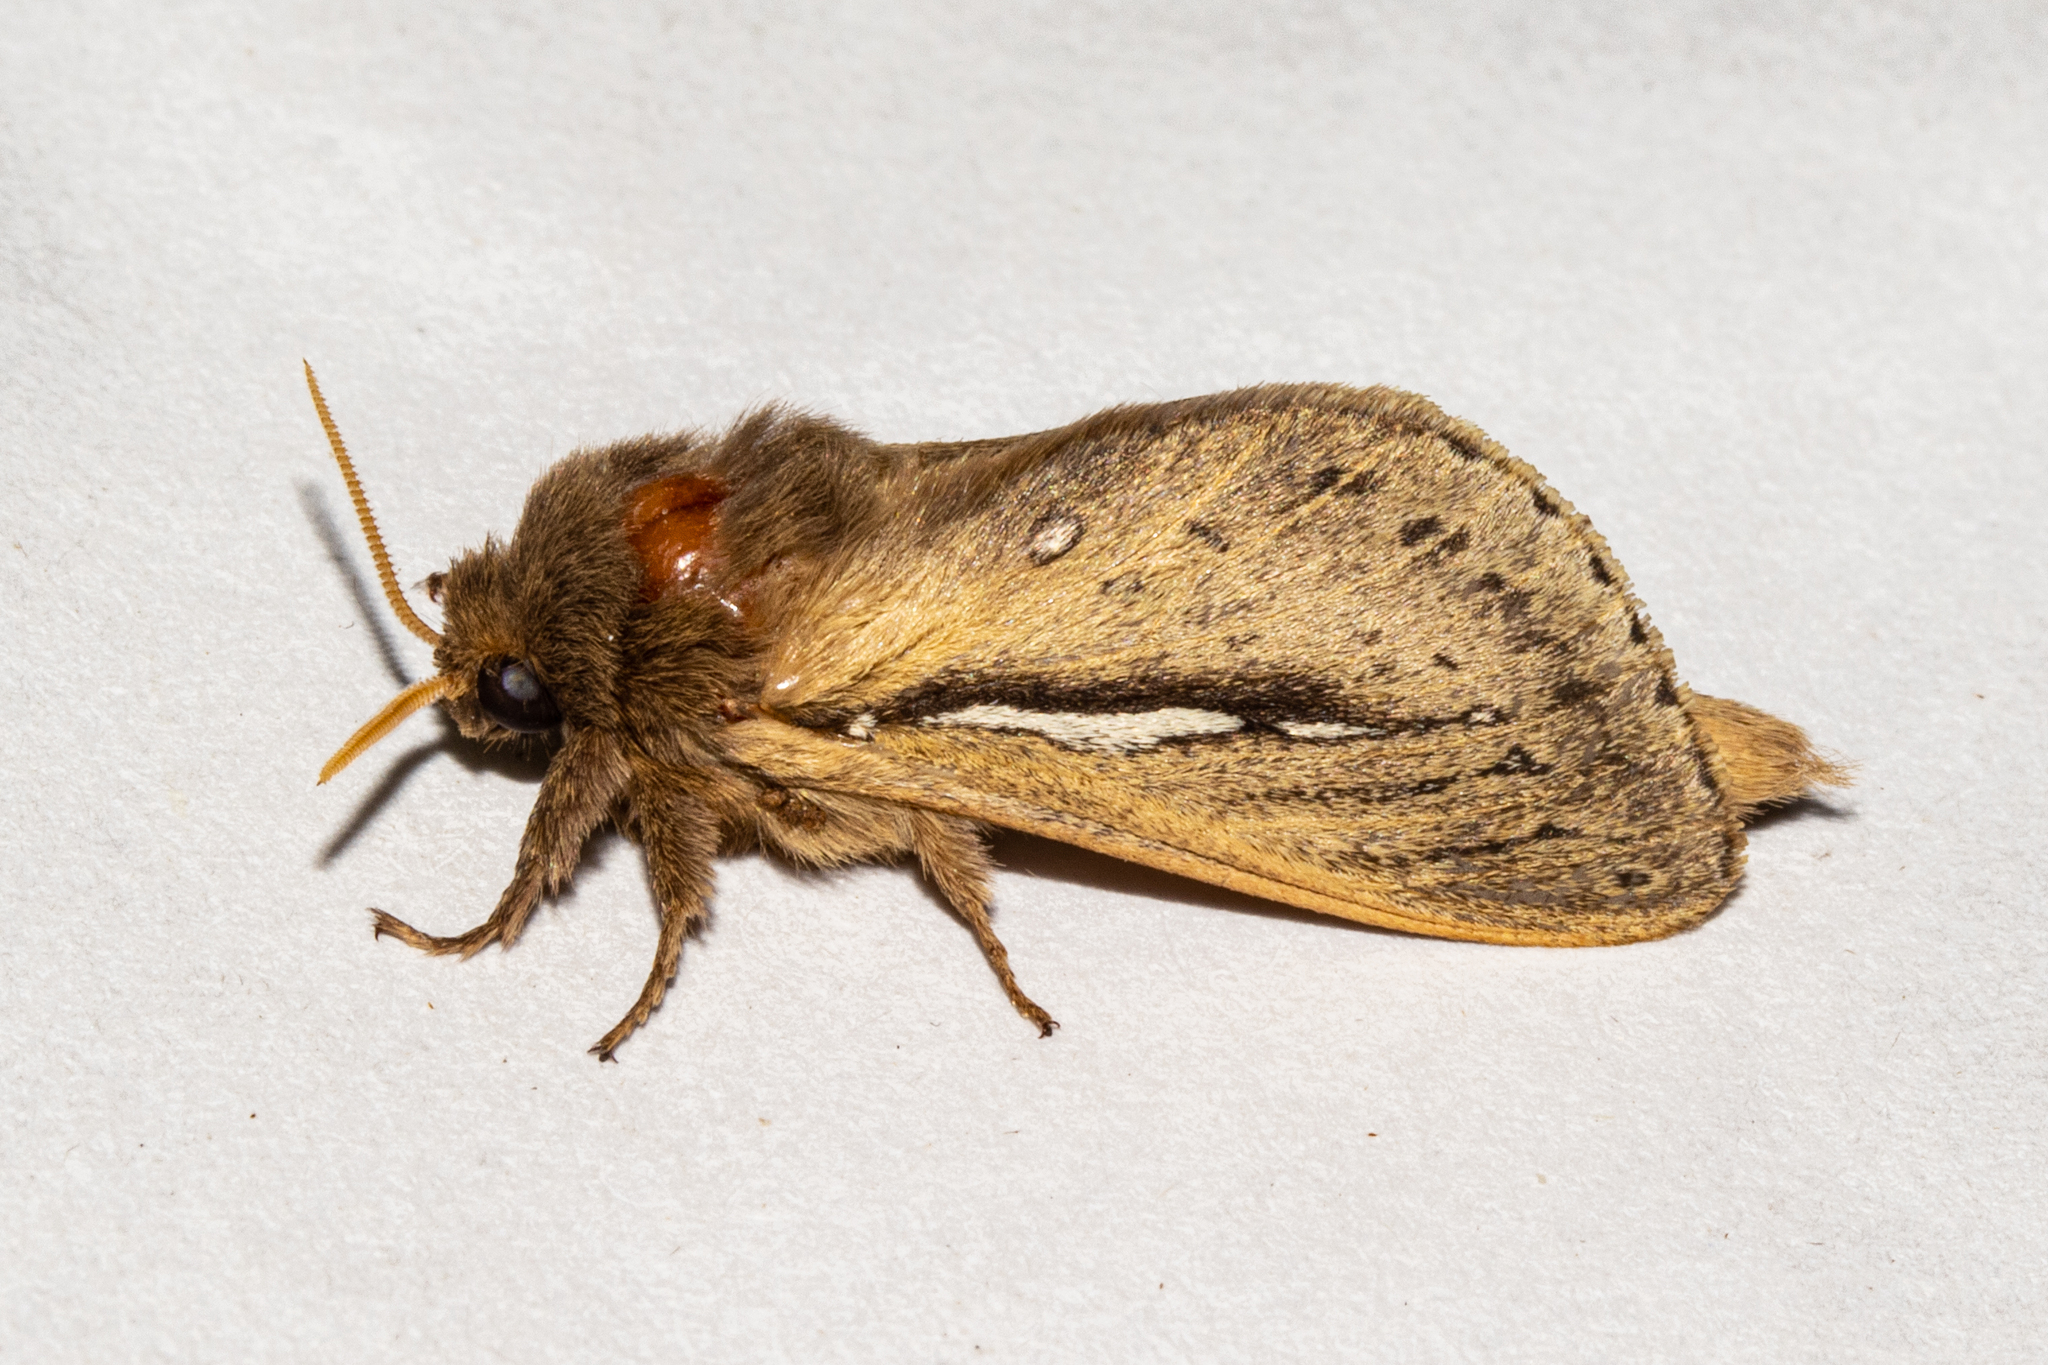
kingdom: Animalia
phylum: Arthropoda
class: Insecta
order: Lepidoptera
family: Hepialidae
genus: Wiseana
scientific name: Wiseana umbraculatus
